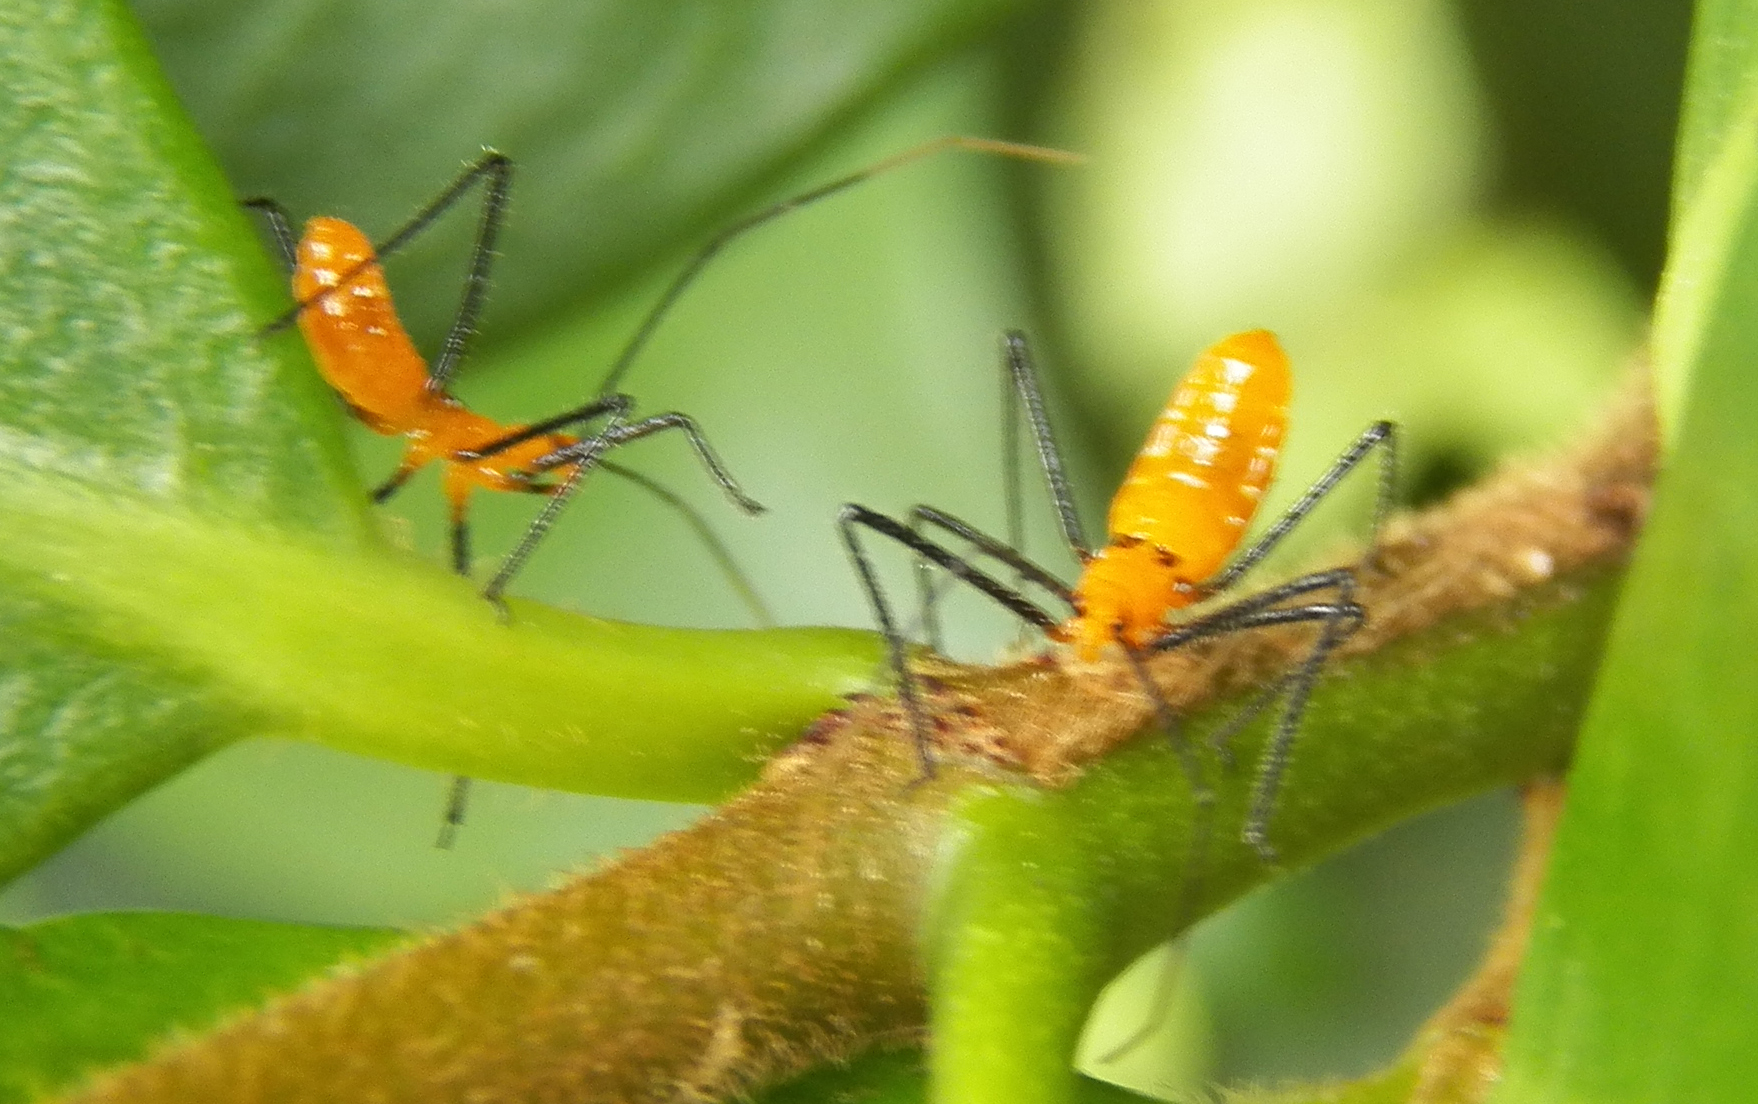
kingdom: Animalia
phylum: Arthropoda
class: Insecta
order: Hemiptera
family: Reduviidae
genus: Zelus
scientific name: Zelus longipes
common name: Milkweed assassin bug
